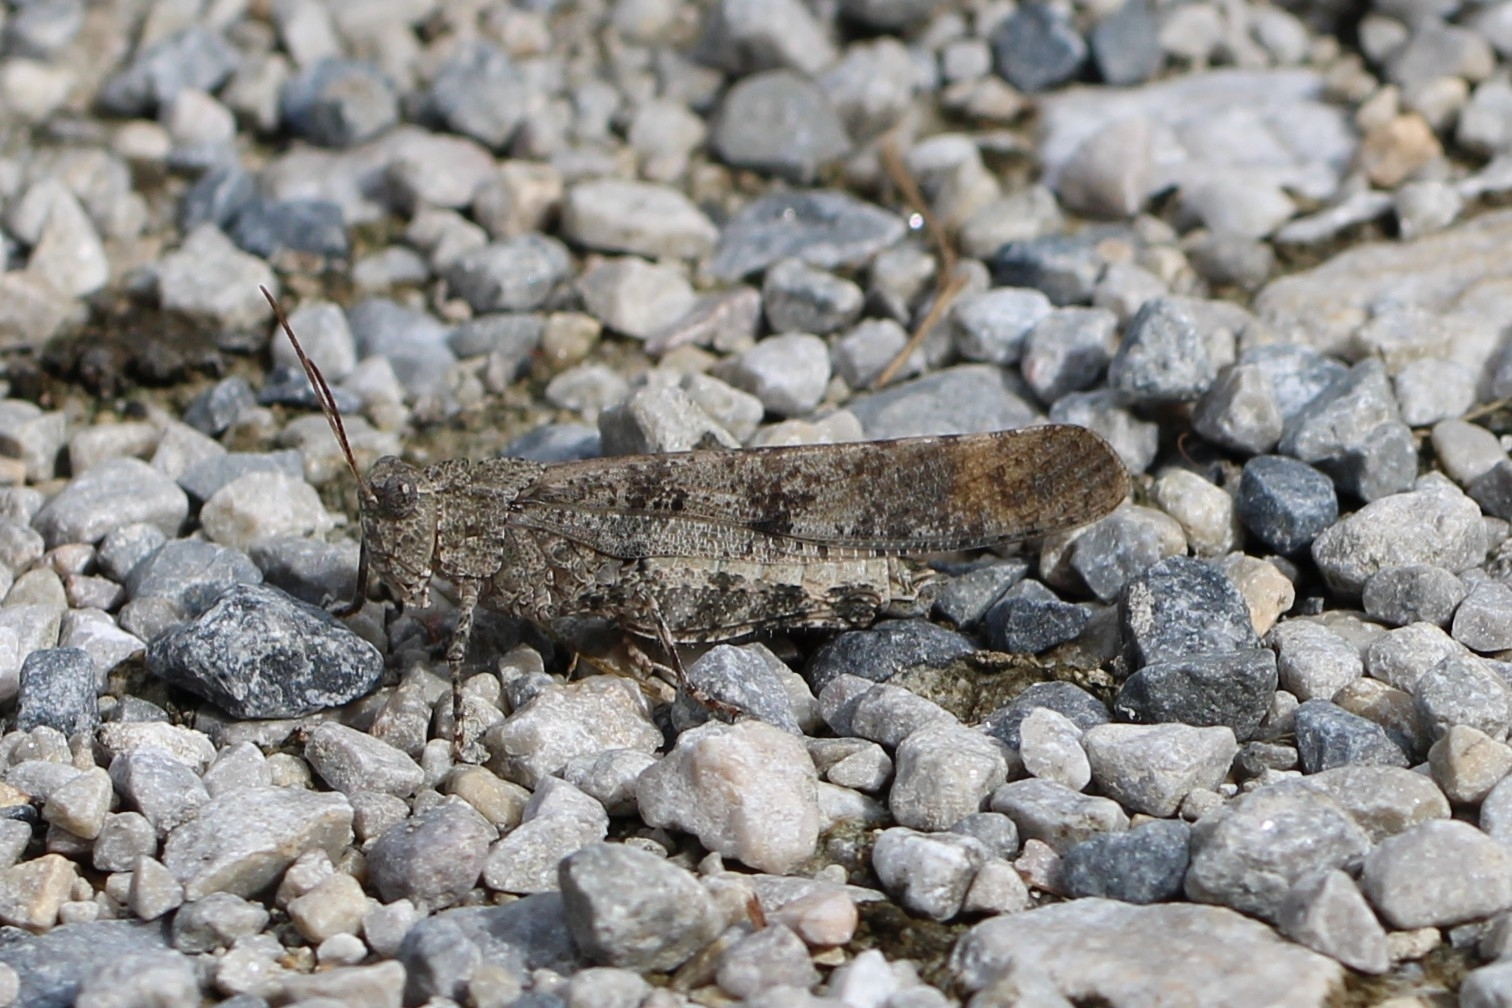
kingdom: Animalia
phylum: Arthropoda
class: Insecta
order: Orthoptera
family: Acrididae
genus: Dissosteira
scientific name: Dissosteira carolina
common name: Carolina grasshopper
